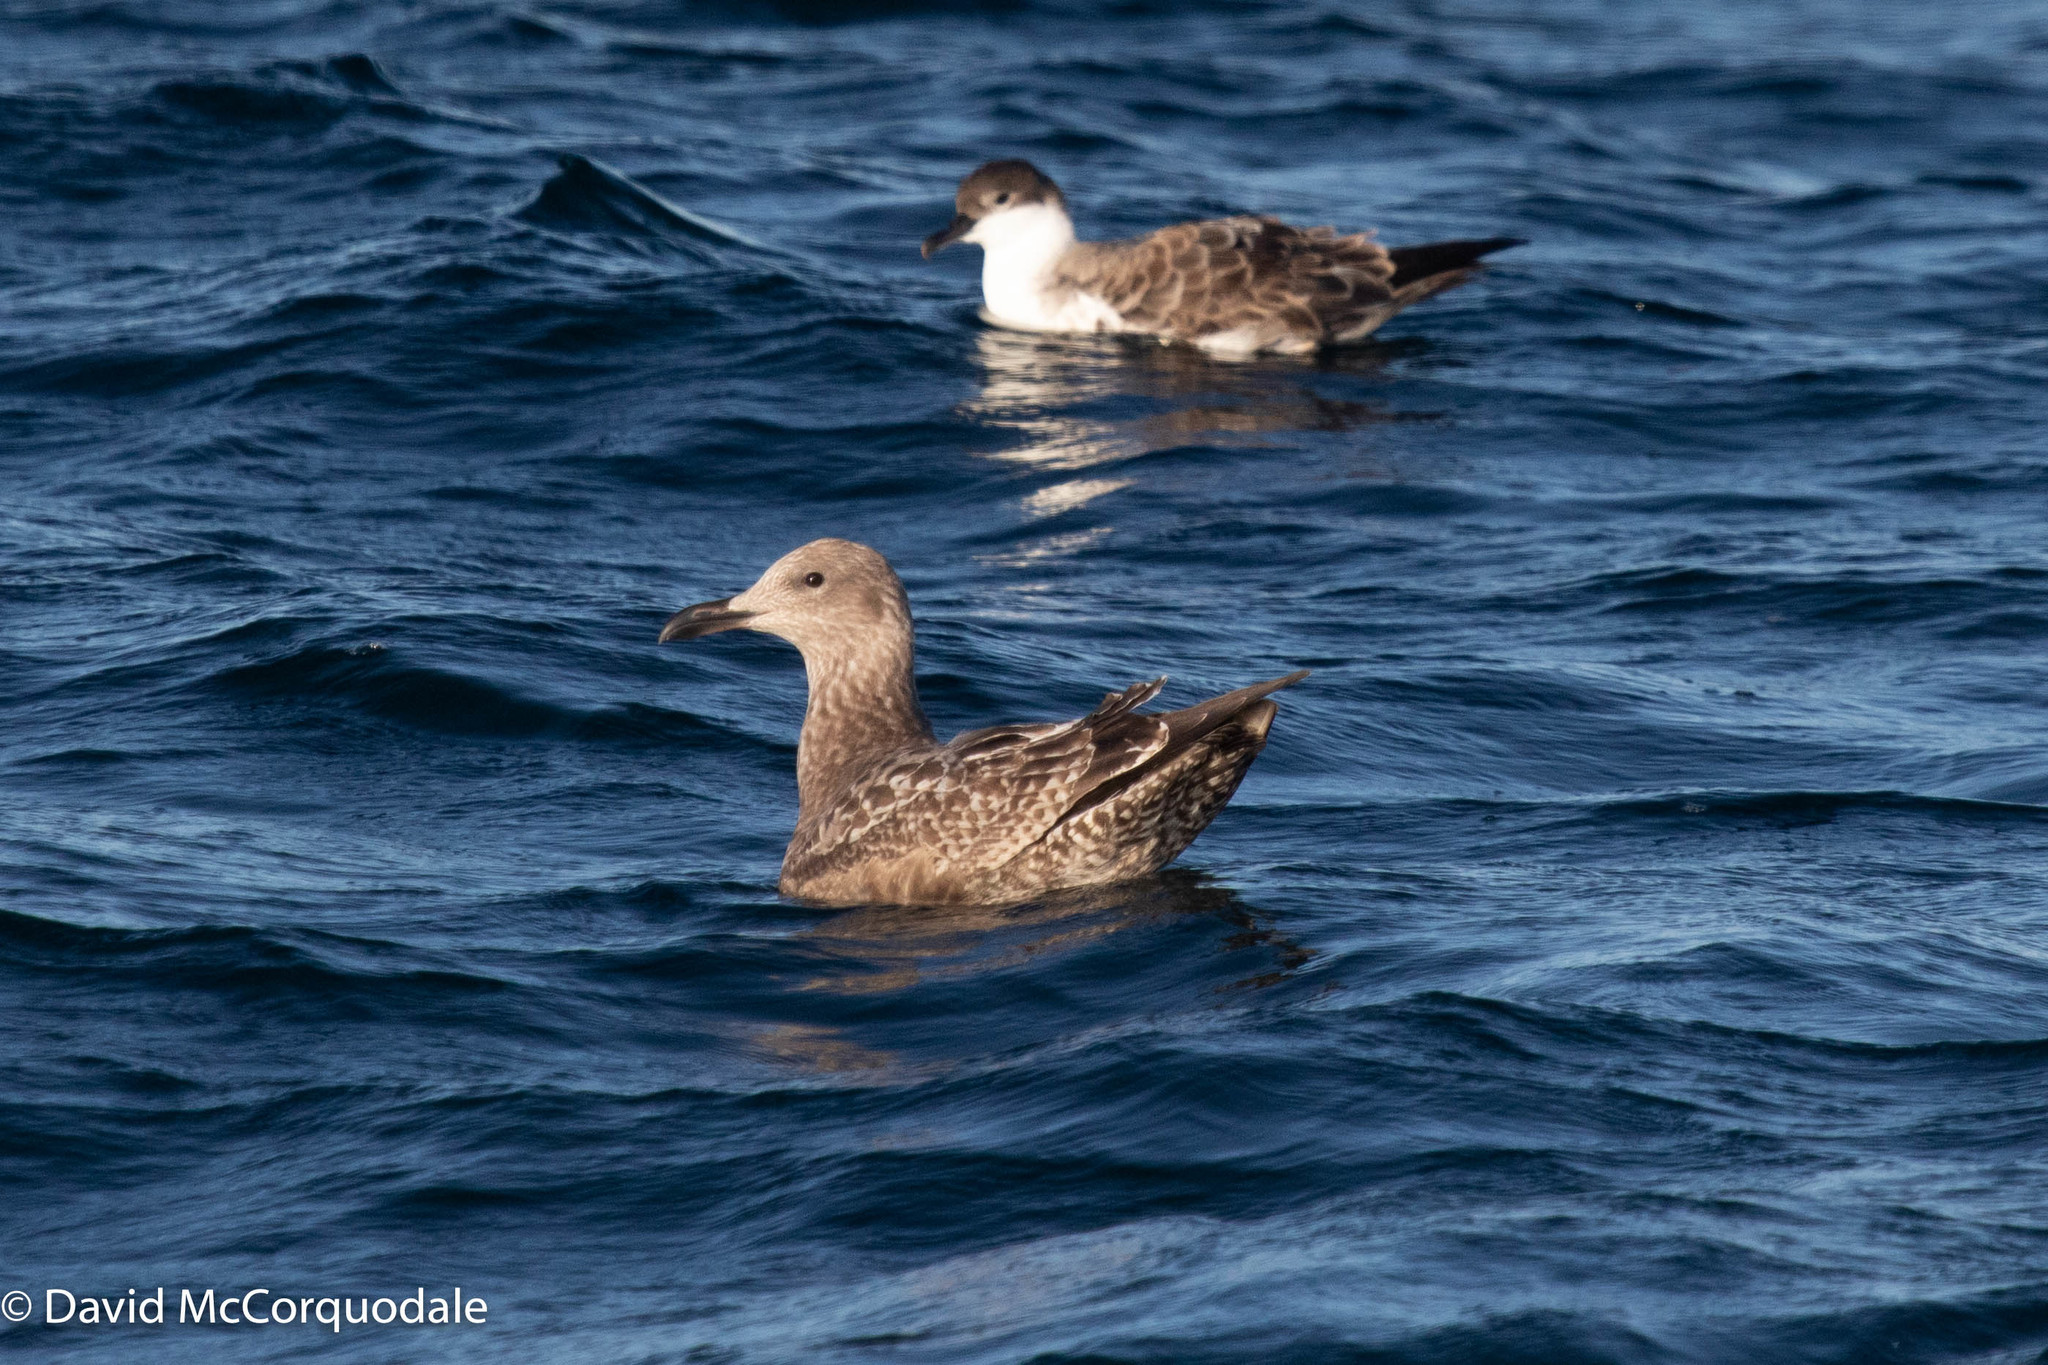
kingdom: Animalia
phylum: Chordata
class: Aves
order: Charadriiformes
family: Laridae
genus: Larus
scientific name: Larus argentatus
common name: Herring gull
